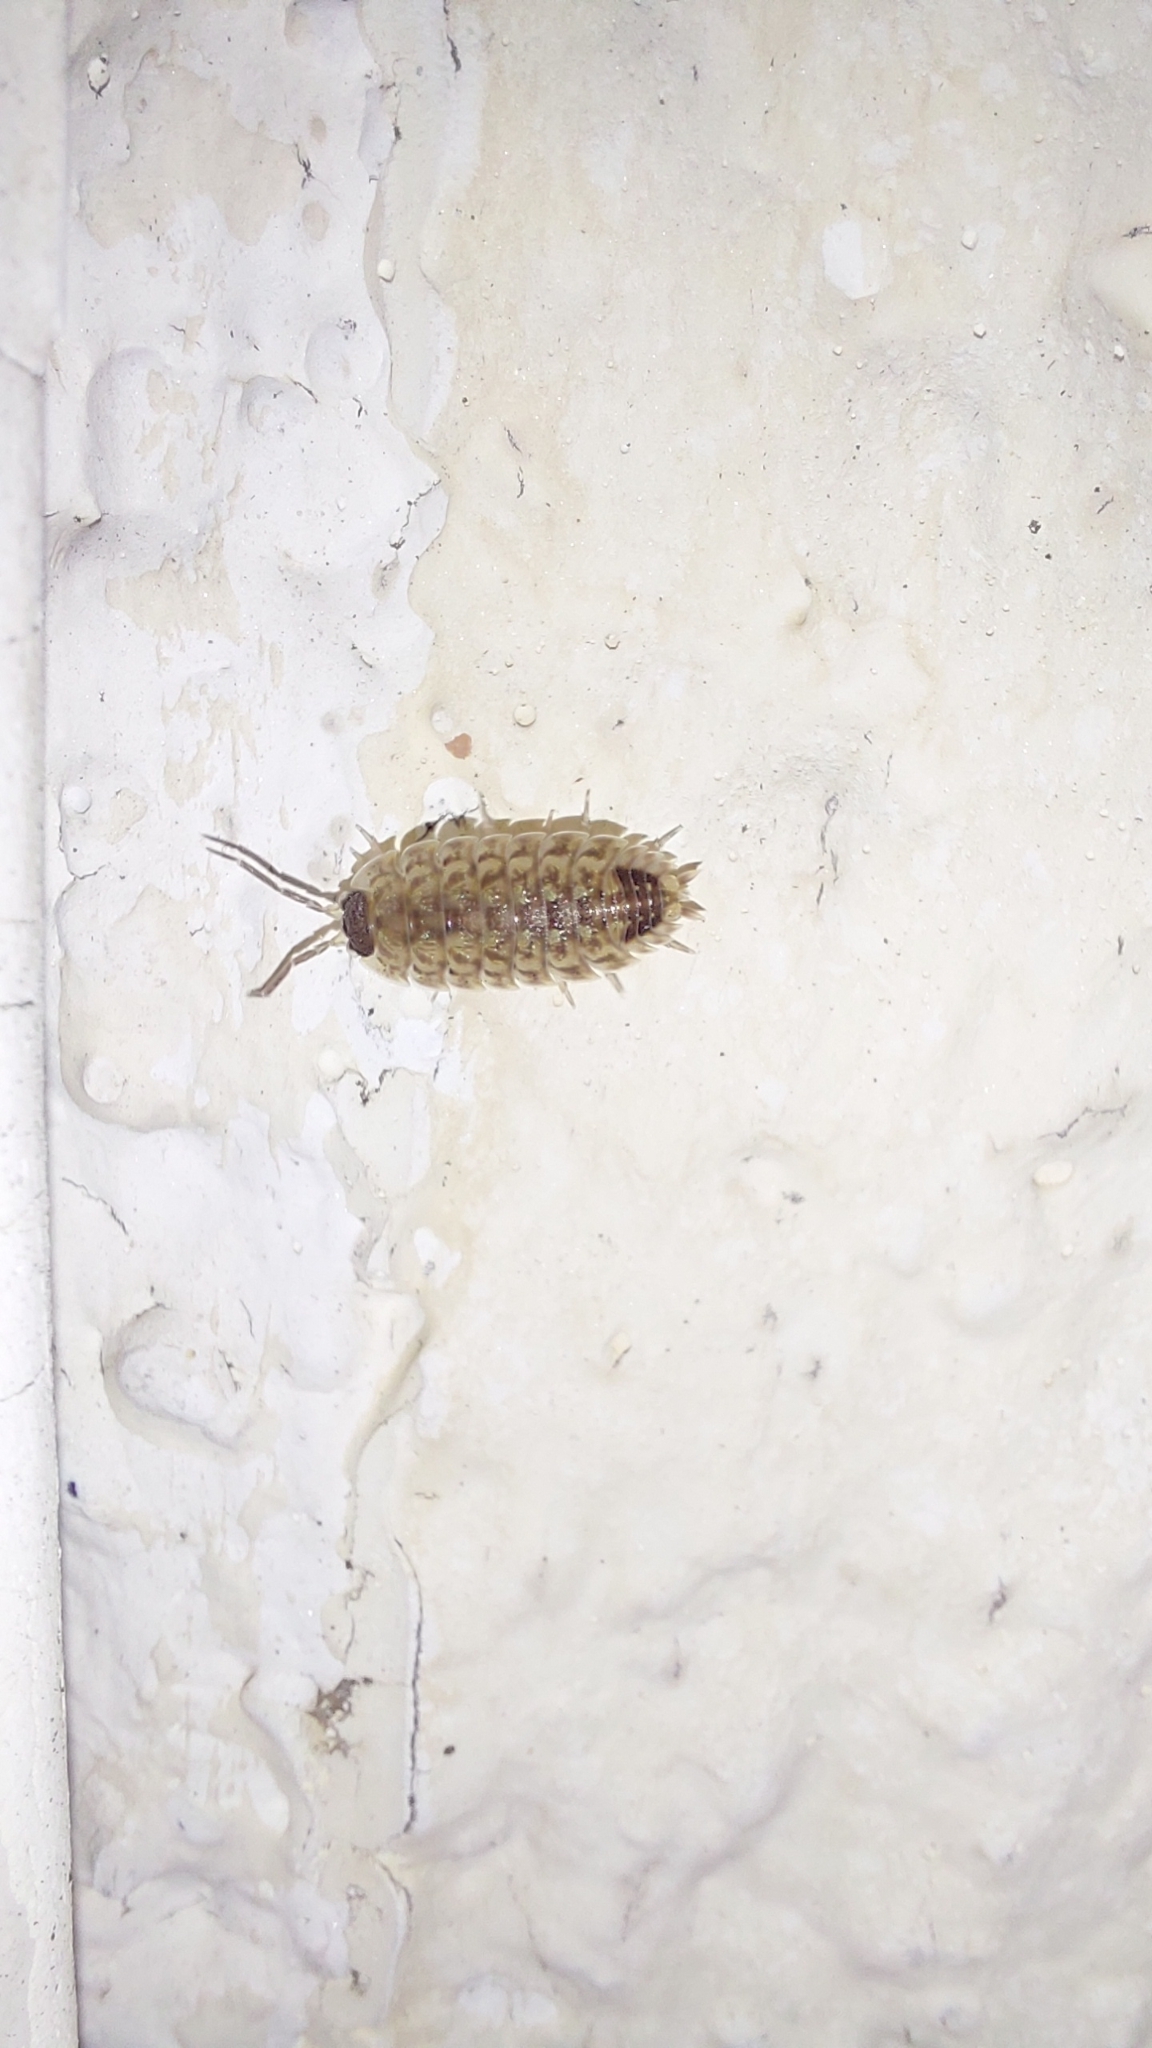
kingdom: Animalia
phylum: Arthropoda
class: Malacostraca
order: Isopoda
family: Porcellionidae
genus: Porcellio
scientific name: Porcellio spinicornis
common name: Painted woodlouse
